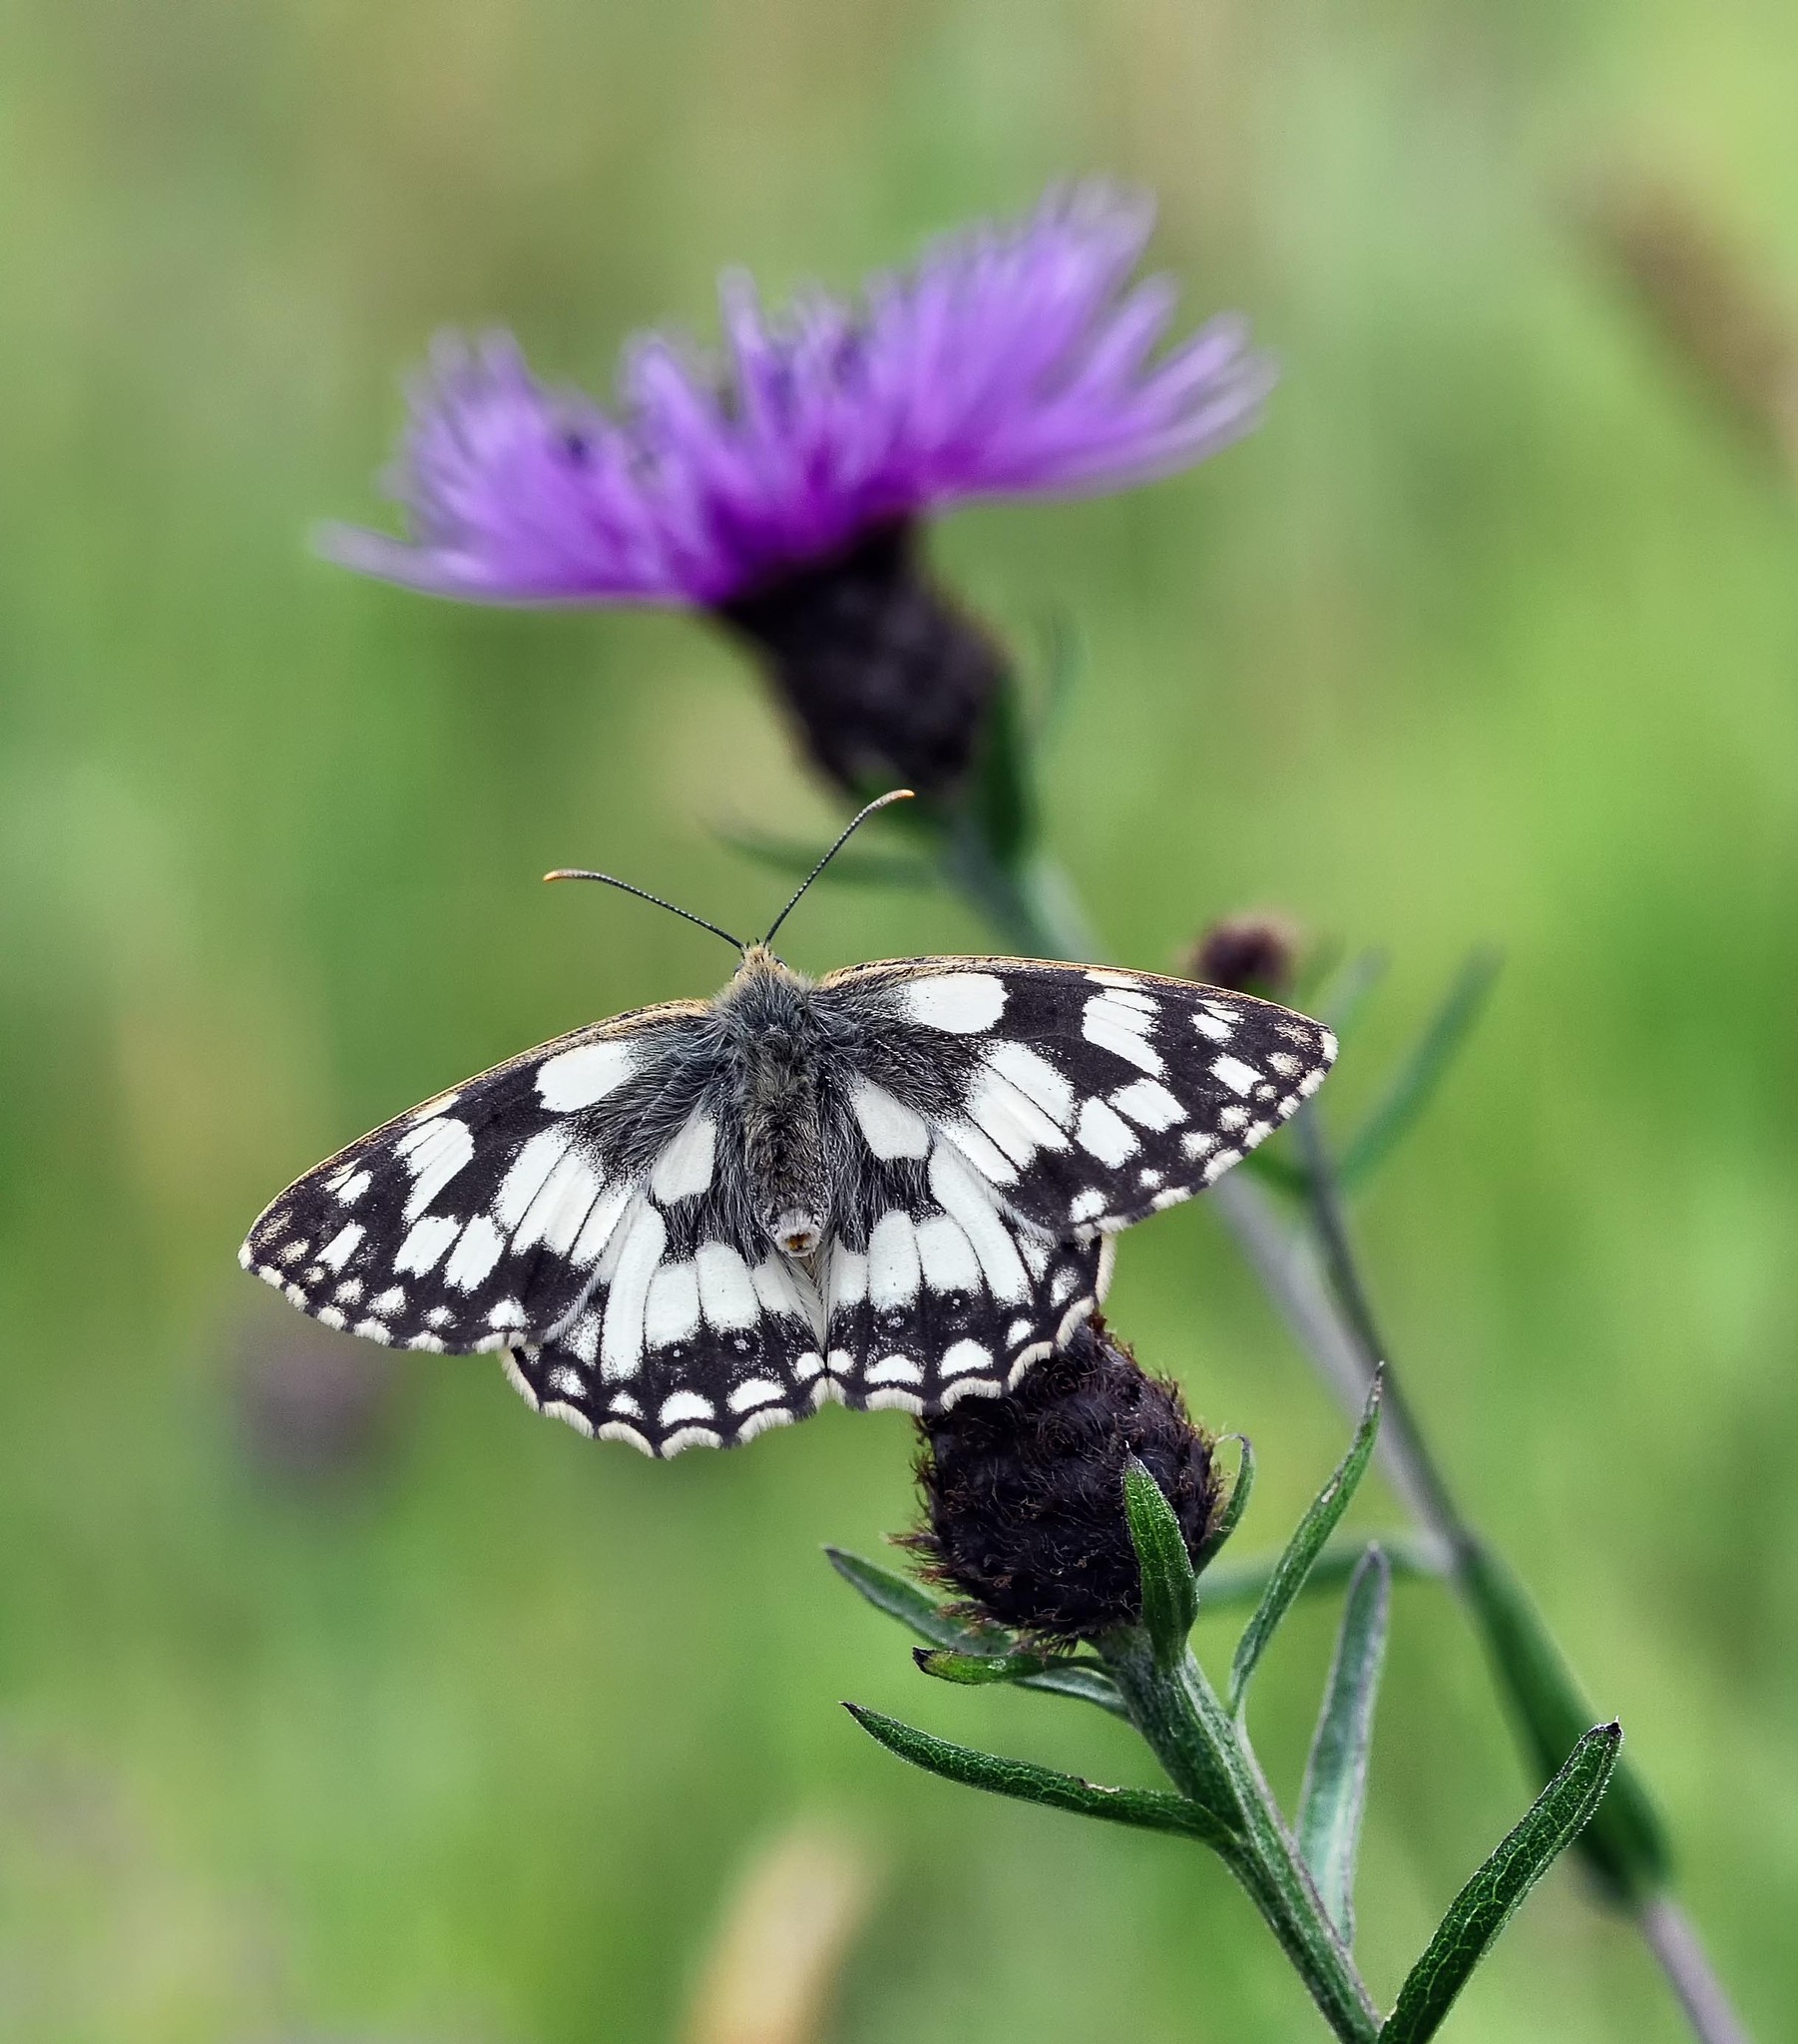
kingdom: Animalia
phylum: Arthropoda
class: Insecta
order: Lepidoptera
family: Nymphalidae
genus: Melanargia
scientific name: Melanargia galathea
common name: Marbled white
